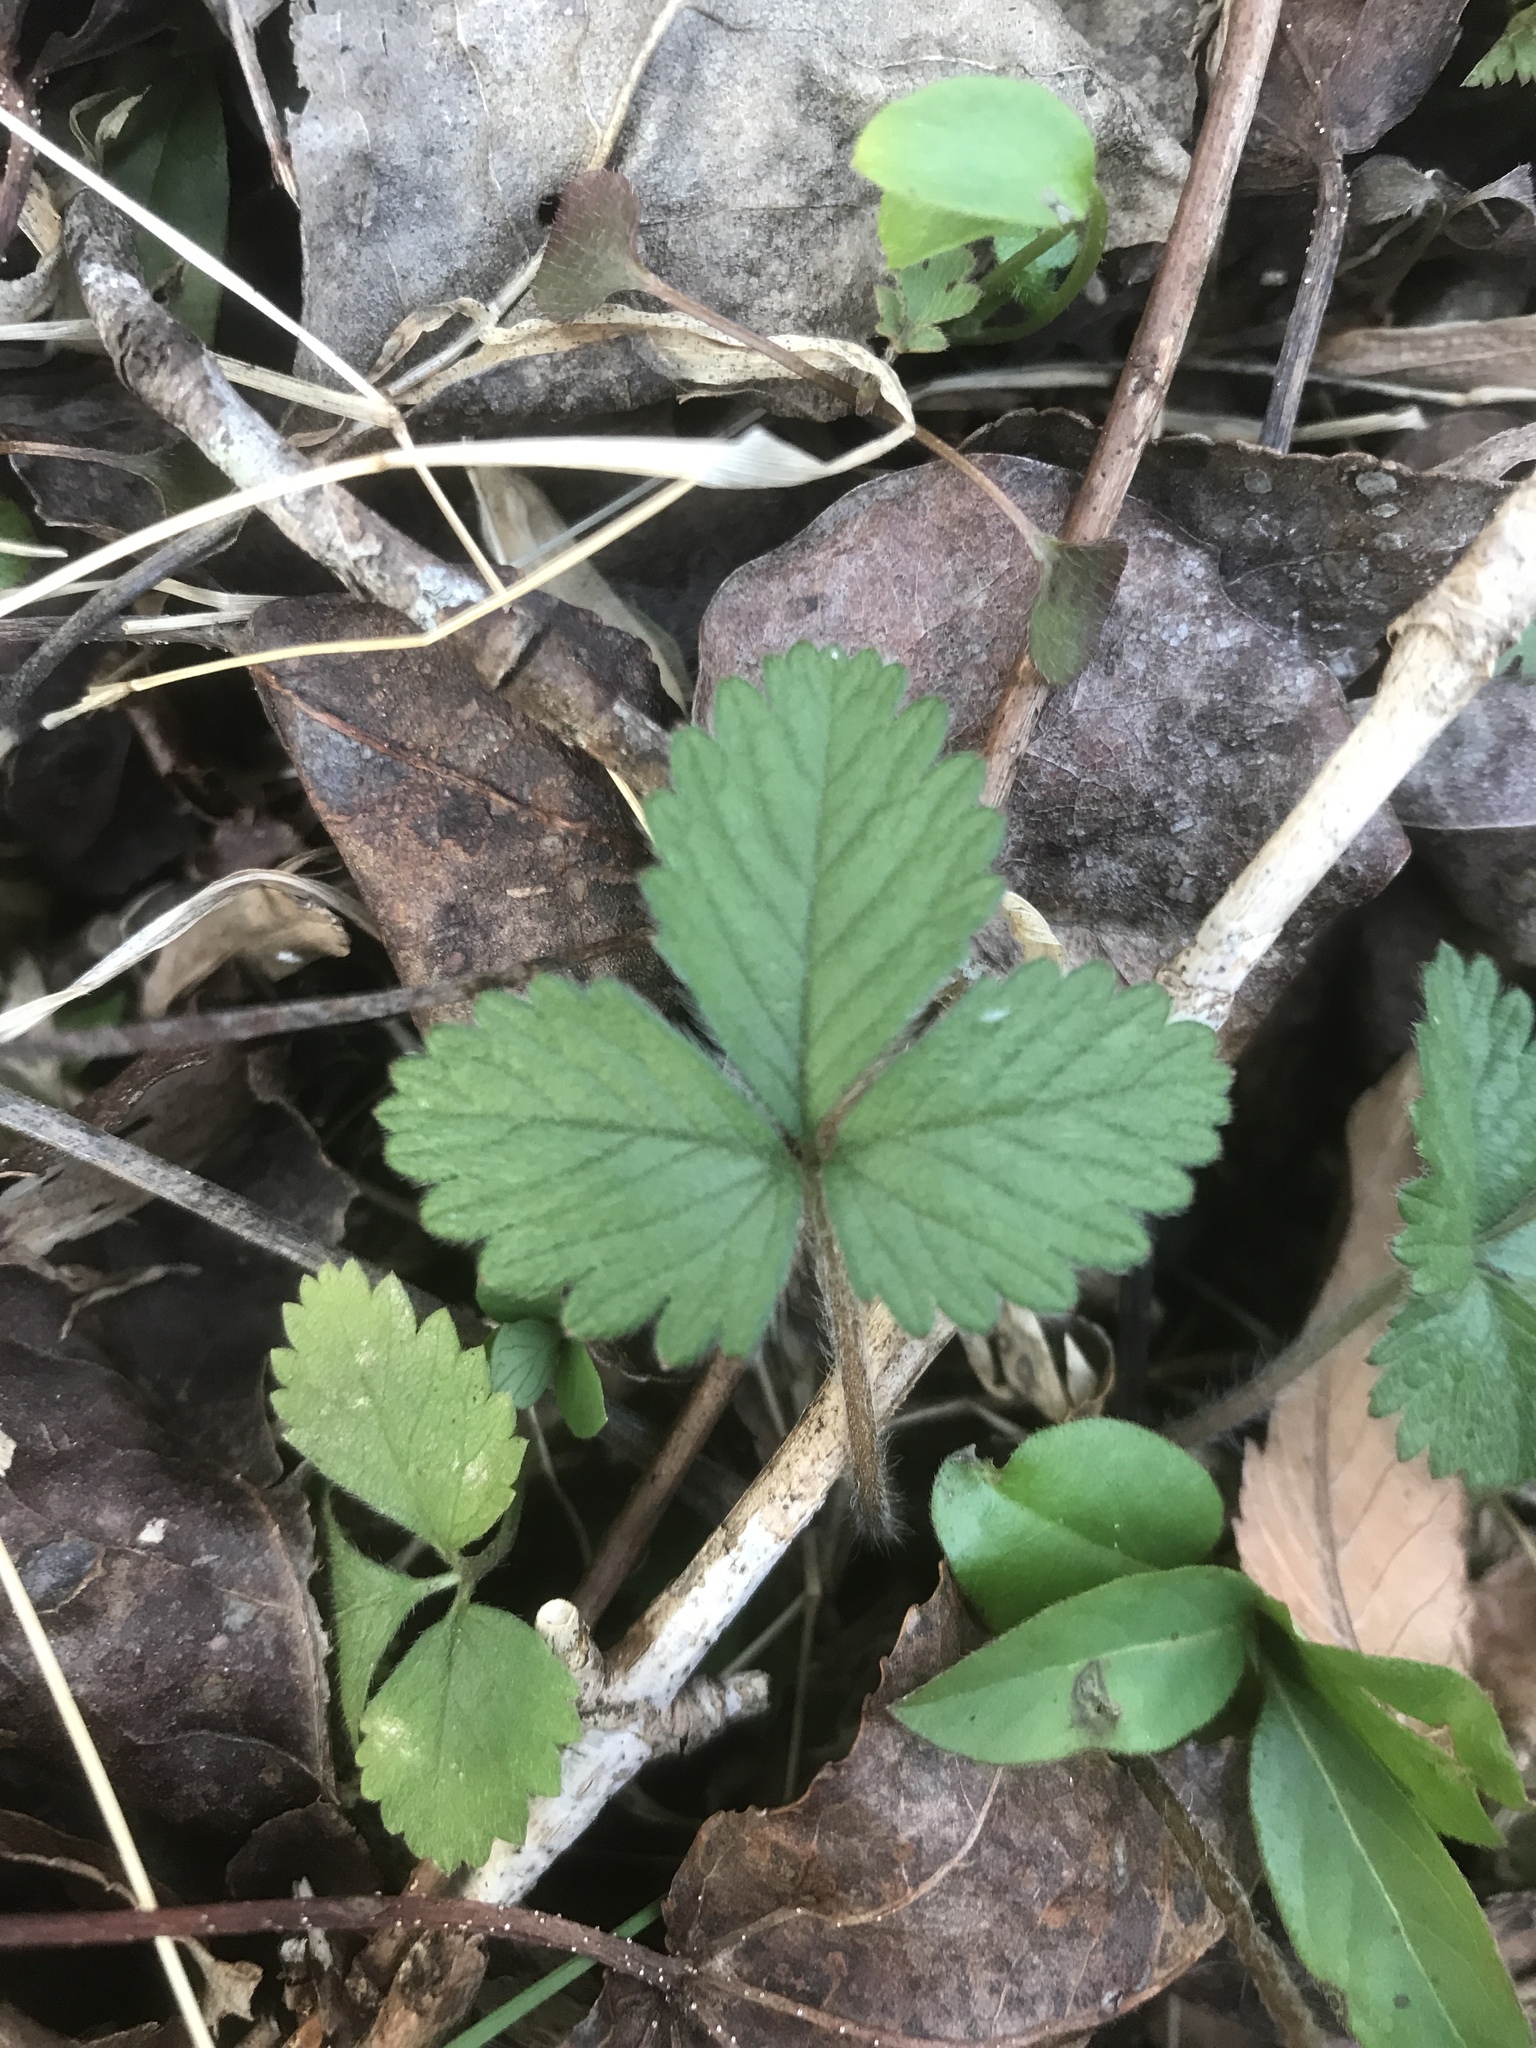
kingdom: Plantae
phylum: Tracheophyta
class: Magnoliopsida
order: Rosales
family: Rosaceae
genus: Potentilla
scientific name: Potentilla indica
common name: Yellow-flowered strawberry
